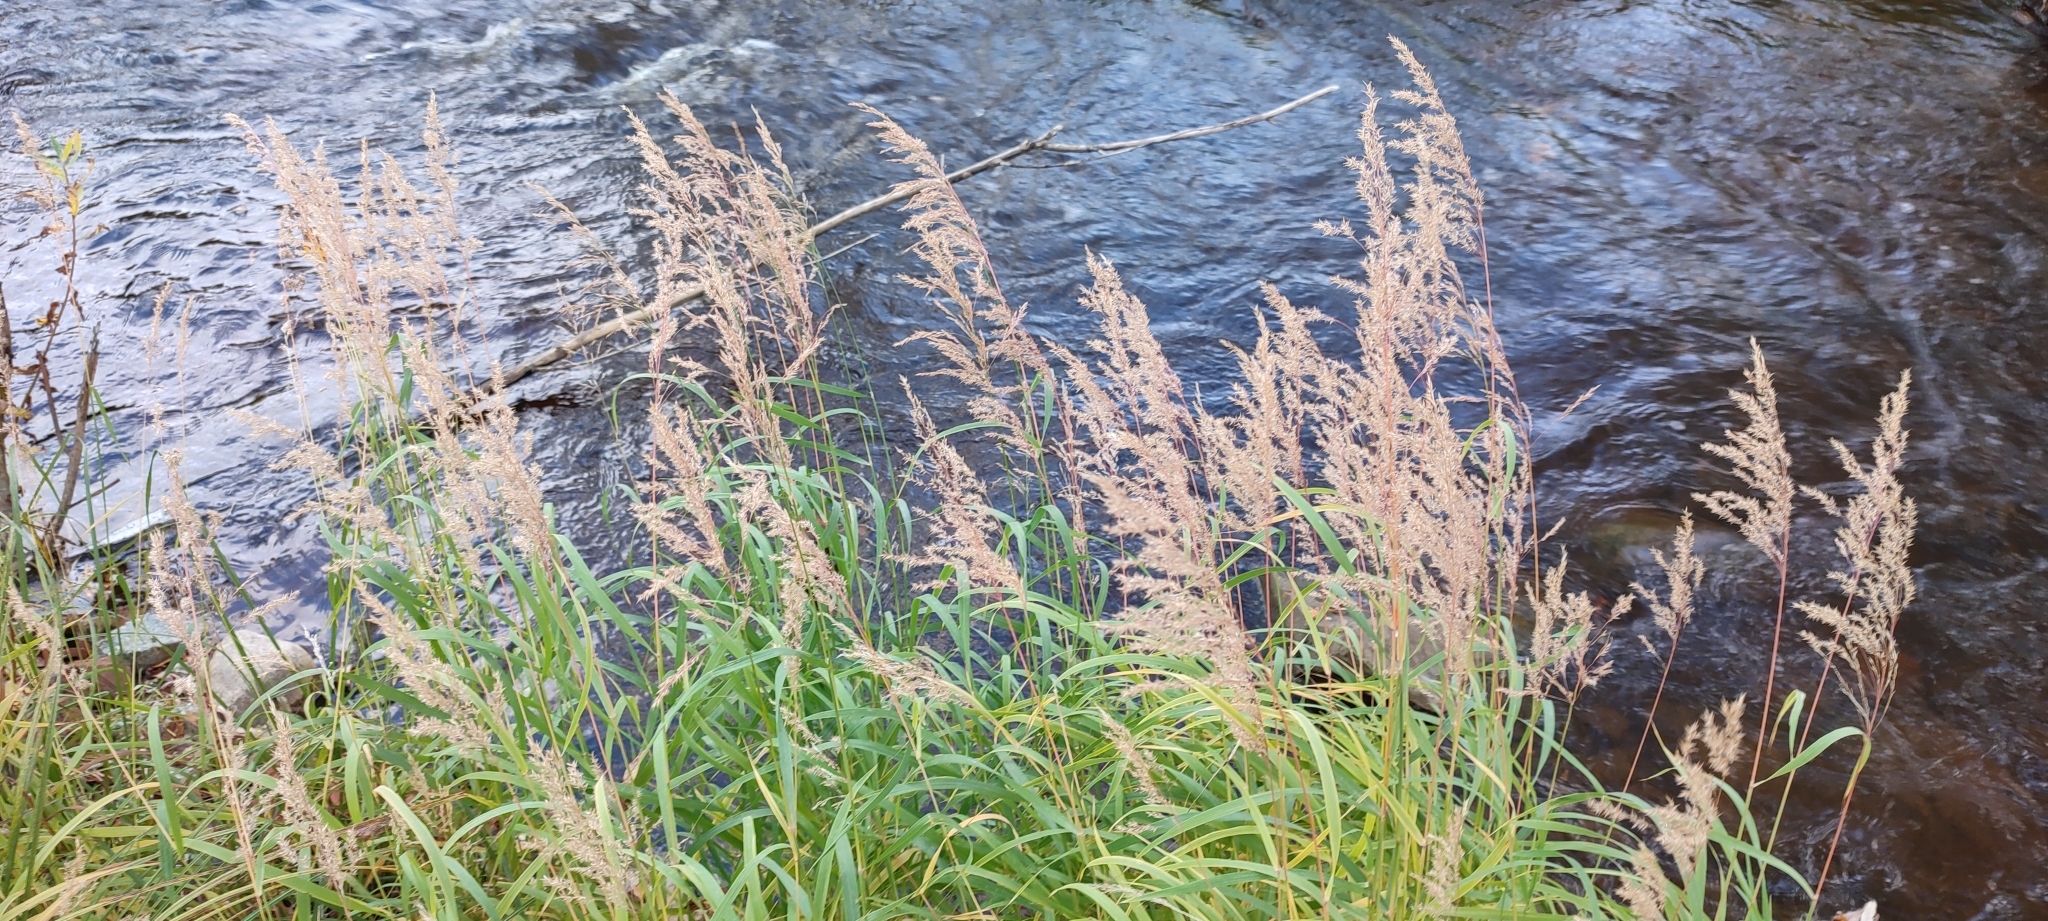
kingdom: Plantae
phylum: Tracheophyta
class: Liliopsida
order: Poales
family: Poaceae
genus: Calamagrostis
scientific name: Calamagrostis purpurea
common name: Scandinavian small-reed
